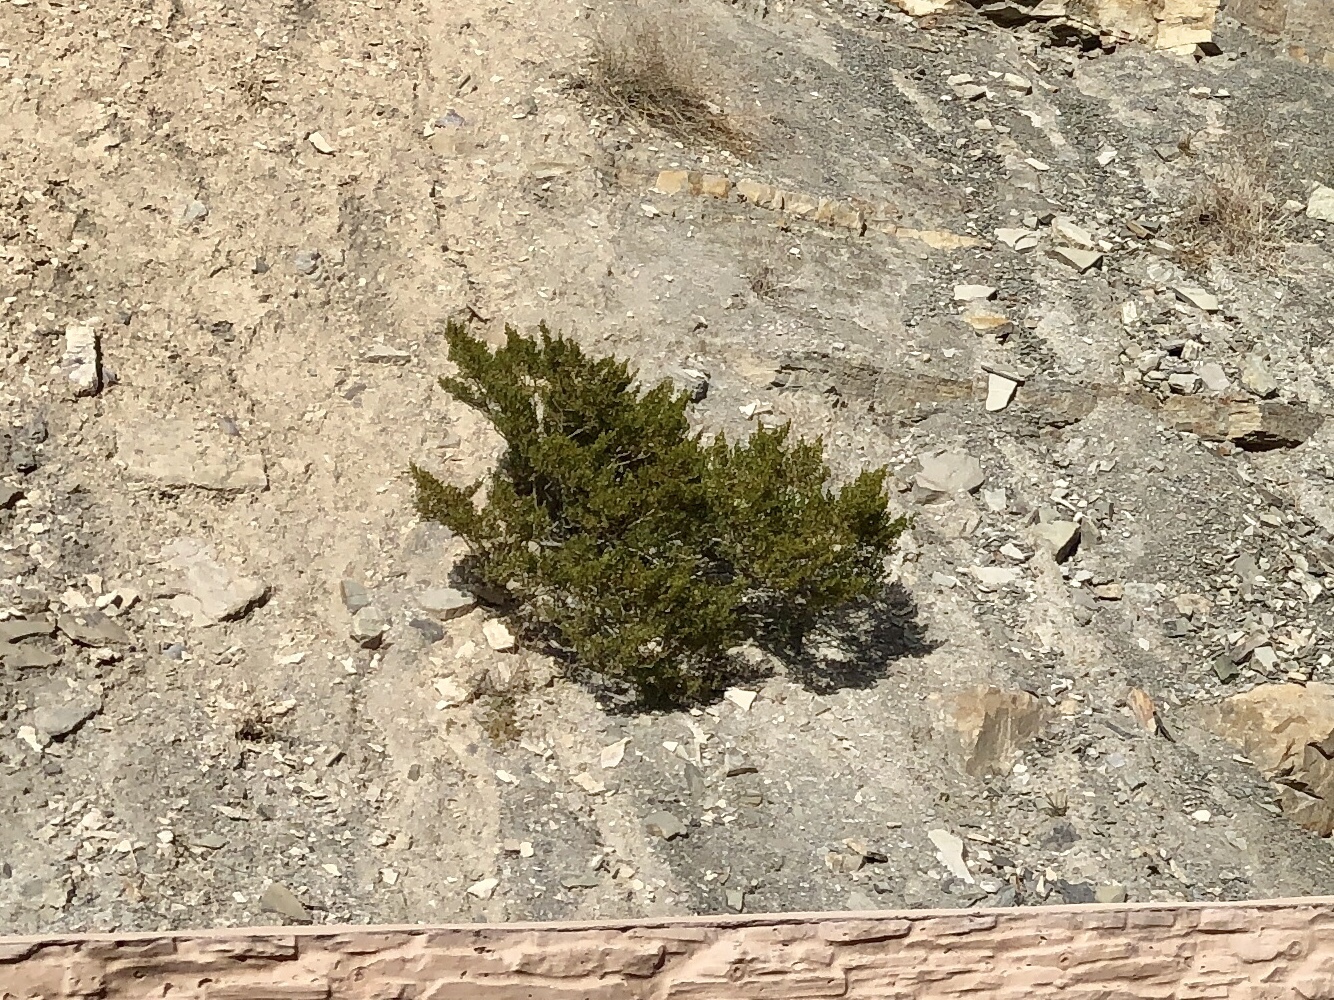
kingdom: Plantae
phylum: Tracheophyta
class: Magnoliopsida
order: Zygophyllales
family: Zygophyllaceae
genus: Larrea
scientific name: Larrea tridentata
